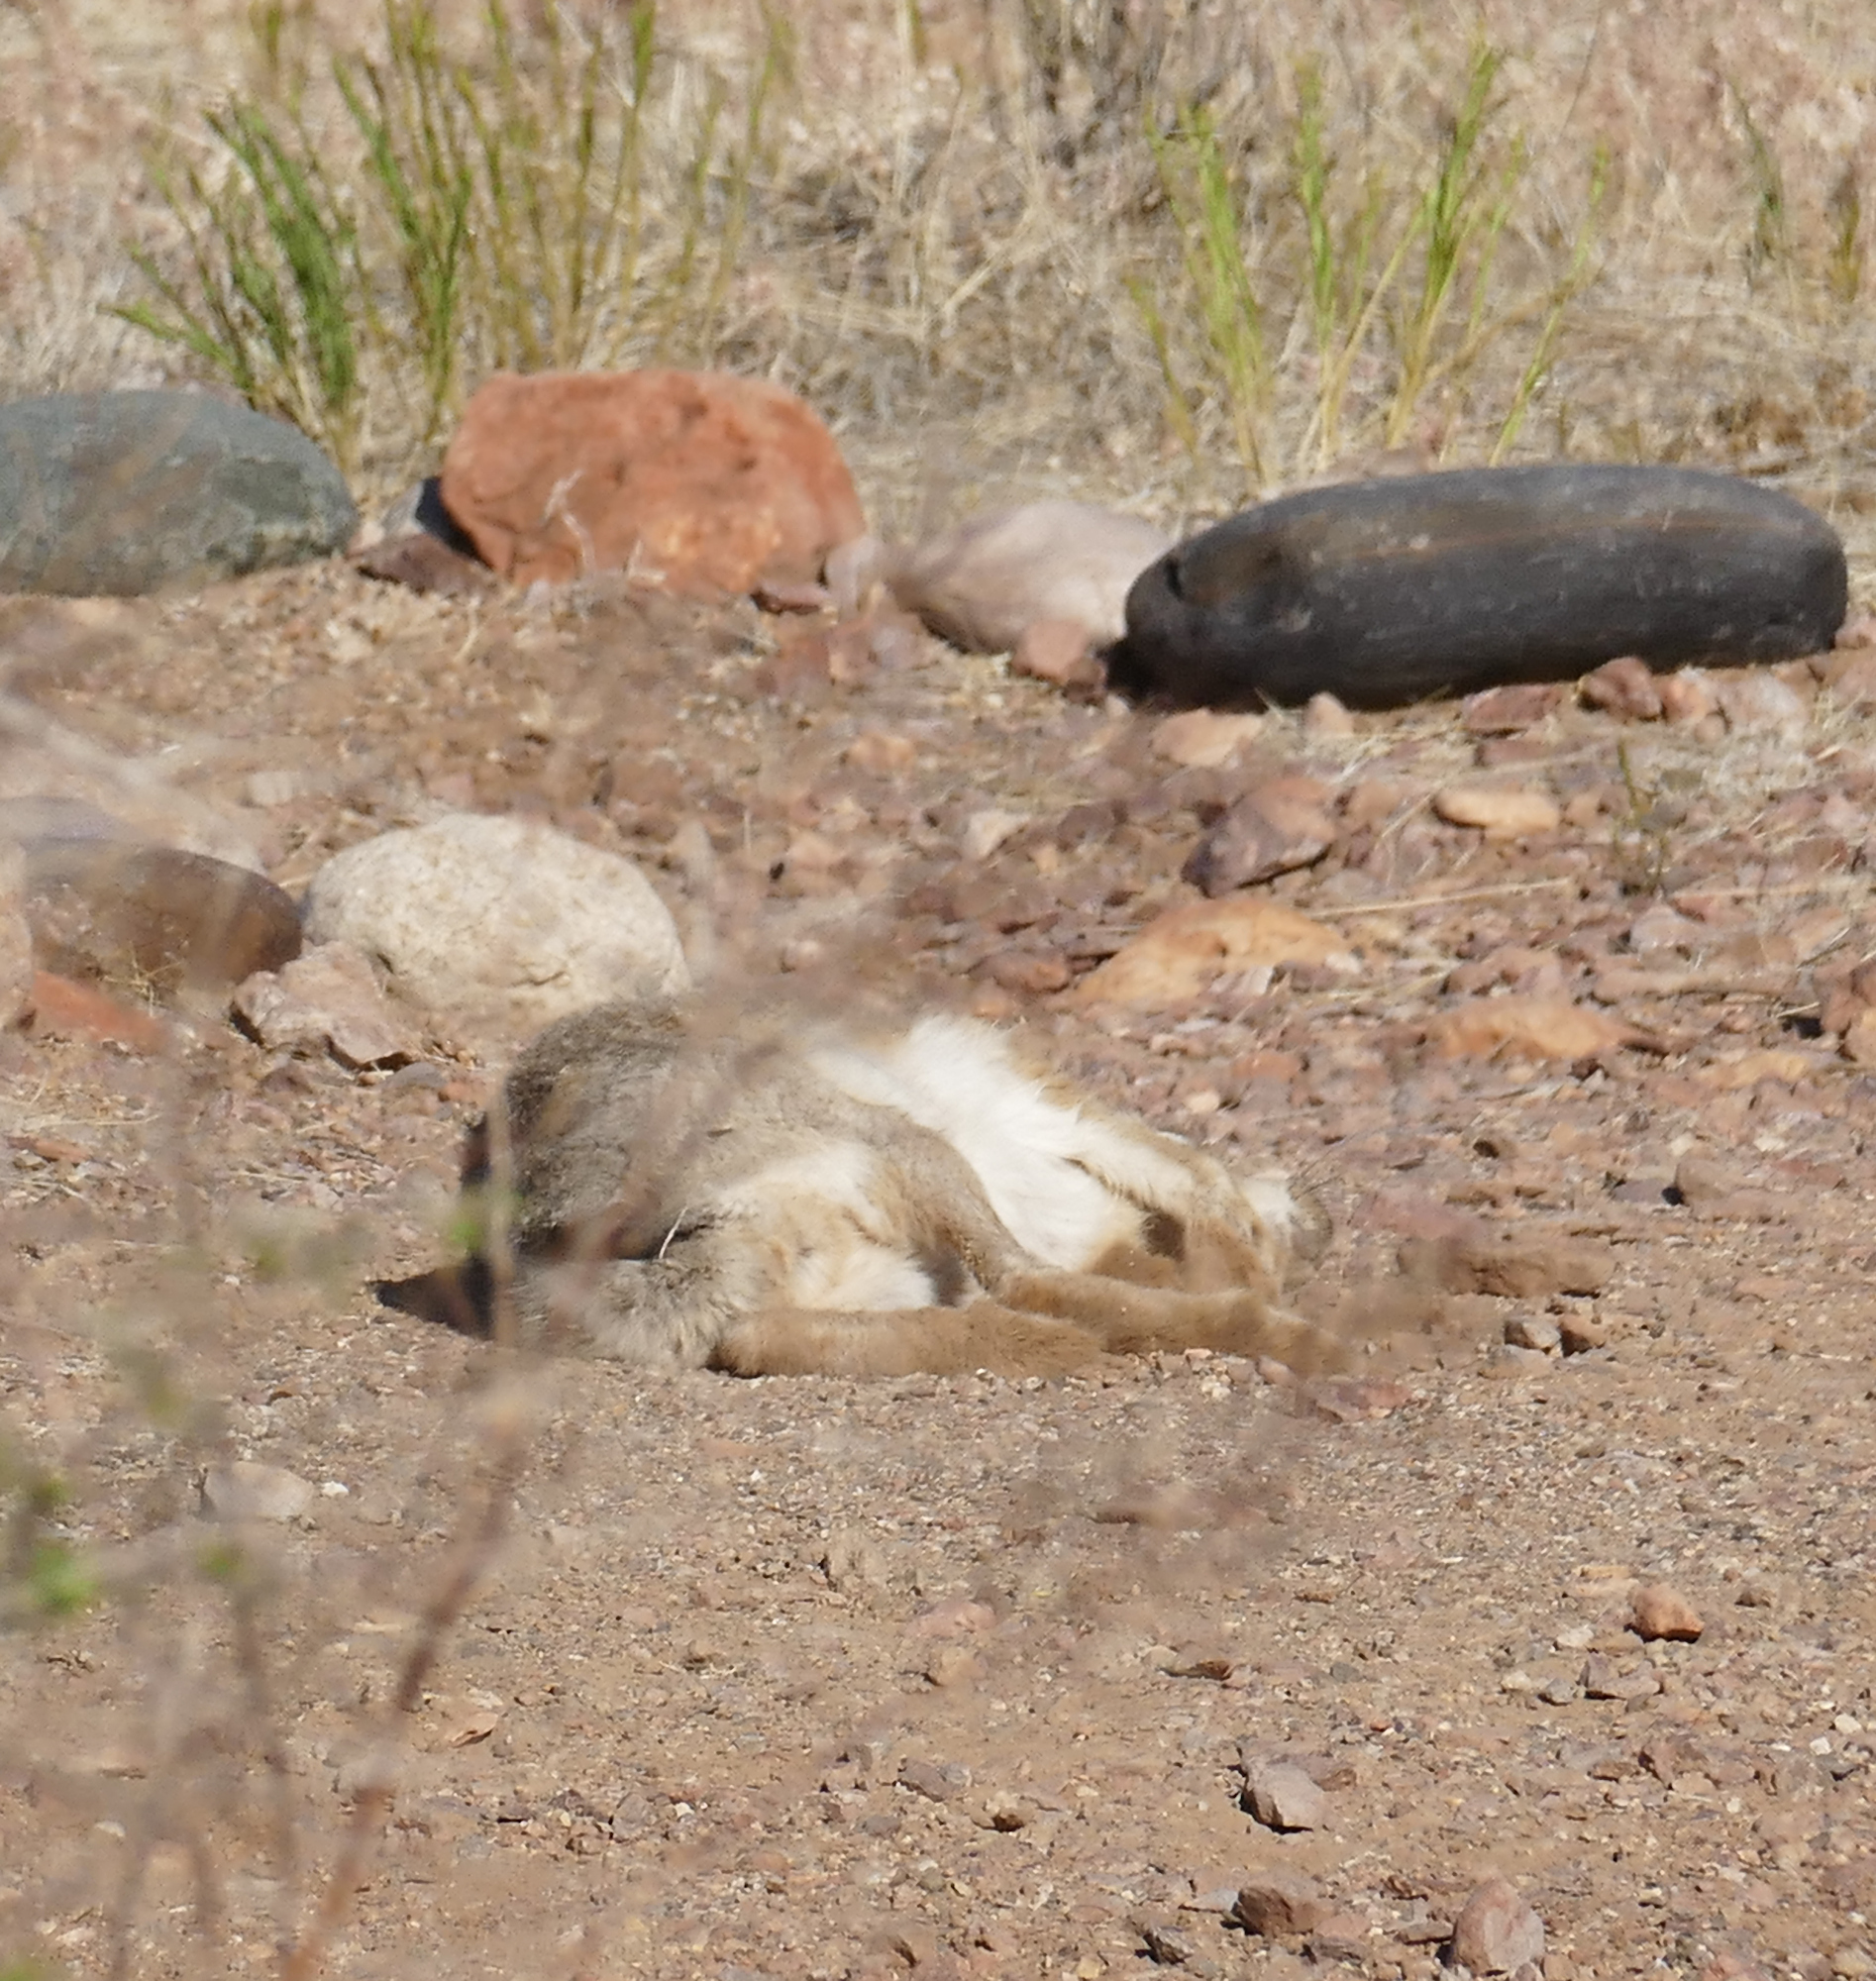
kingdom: Animalia
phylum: Chordata
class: Mammalia
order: Lagomorpha
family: Leporidae
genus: Lepus
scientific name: Lepus californicus
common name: Black-tailed jackrabbit
